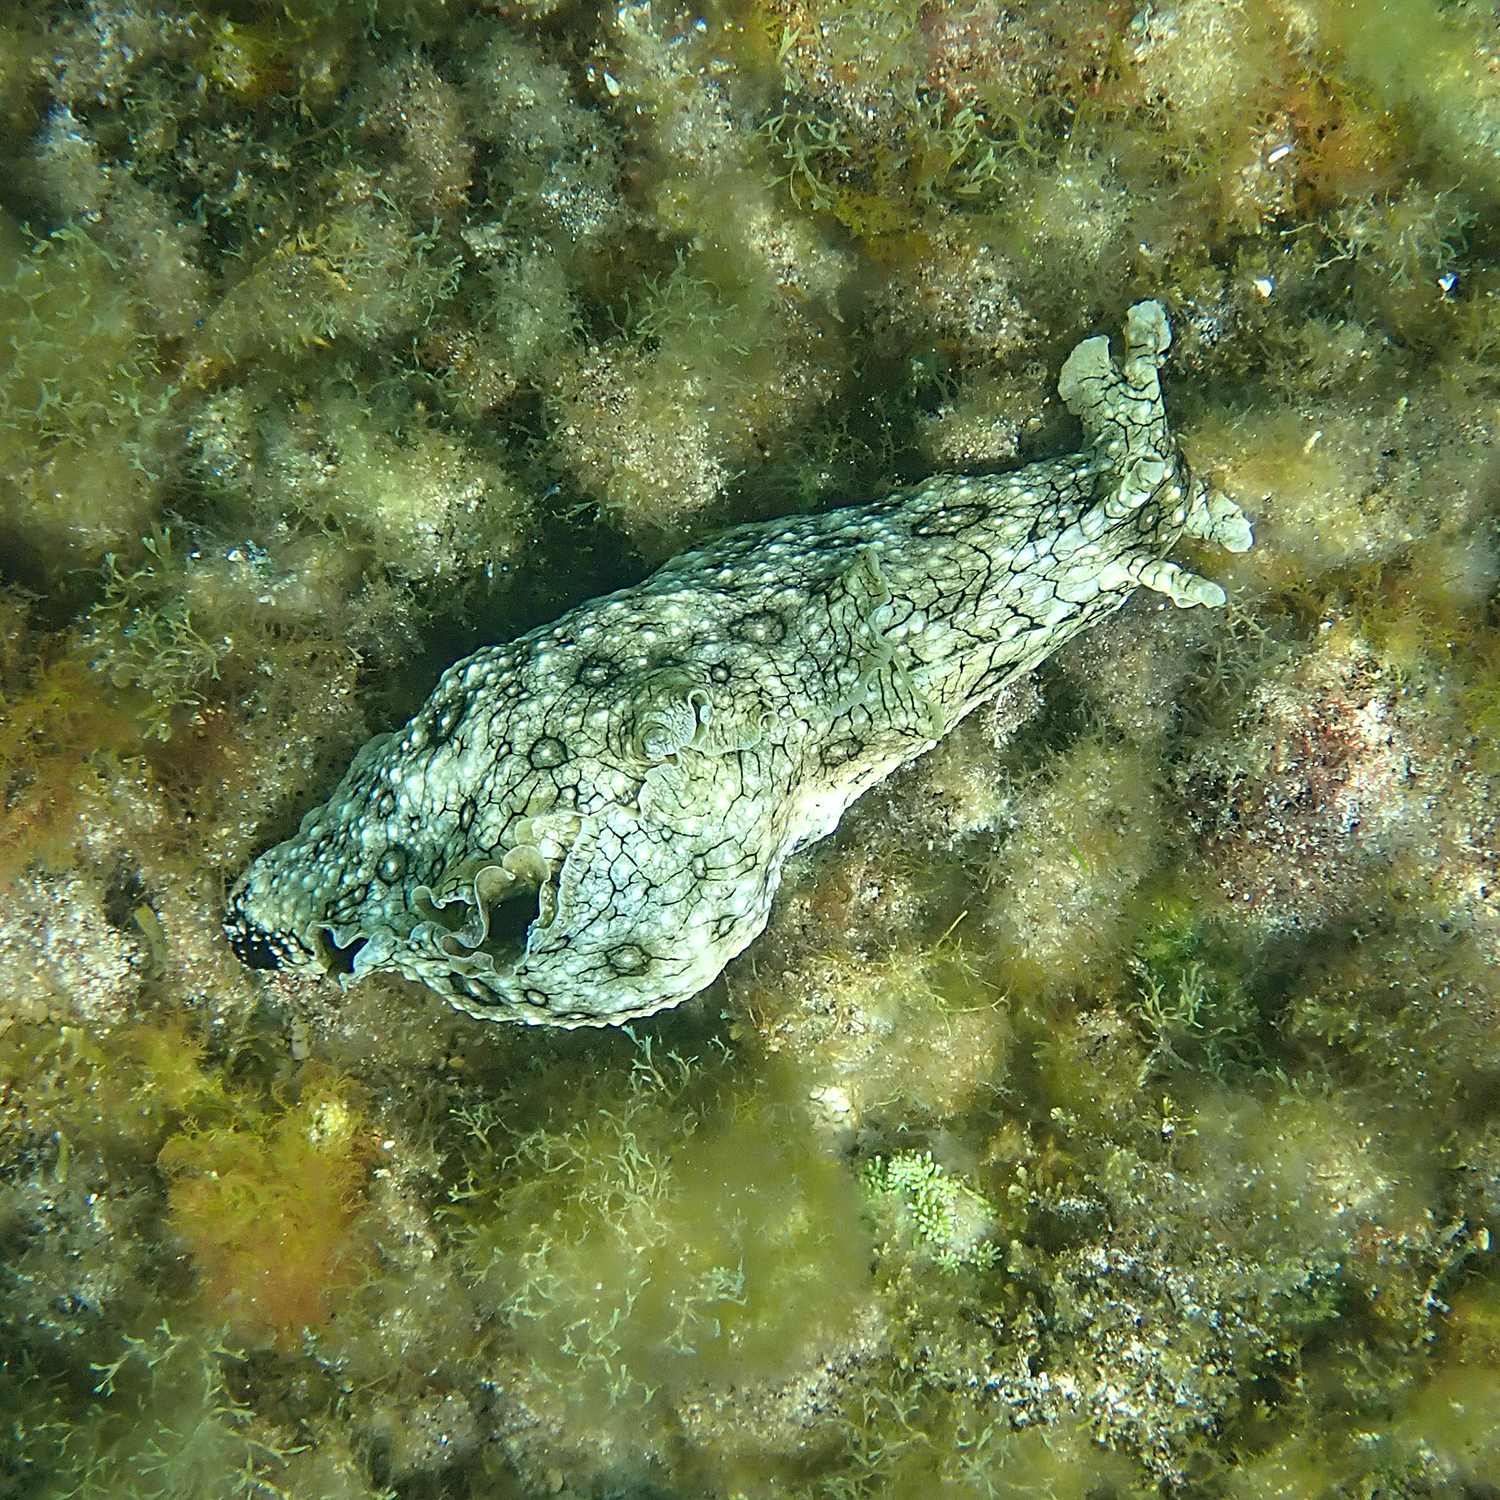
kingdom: Animalia
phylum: Mollusca
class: Gastropoda
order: Aplysiida
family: Aplysiidae
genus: Aplysia
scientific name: Aplysia argus
